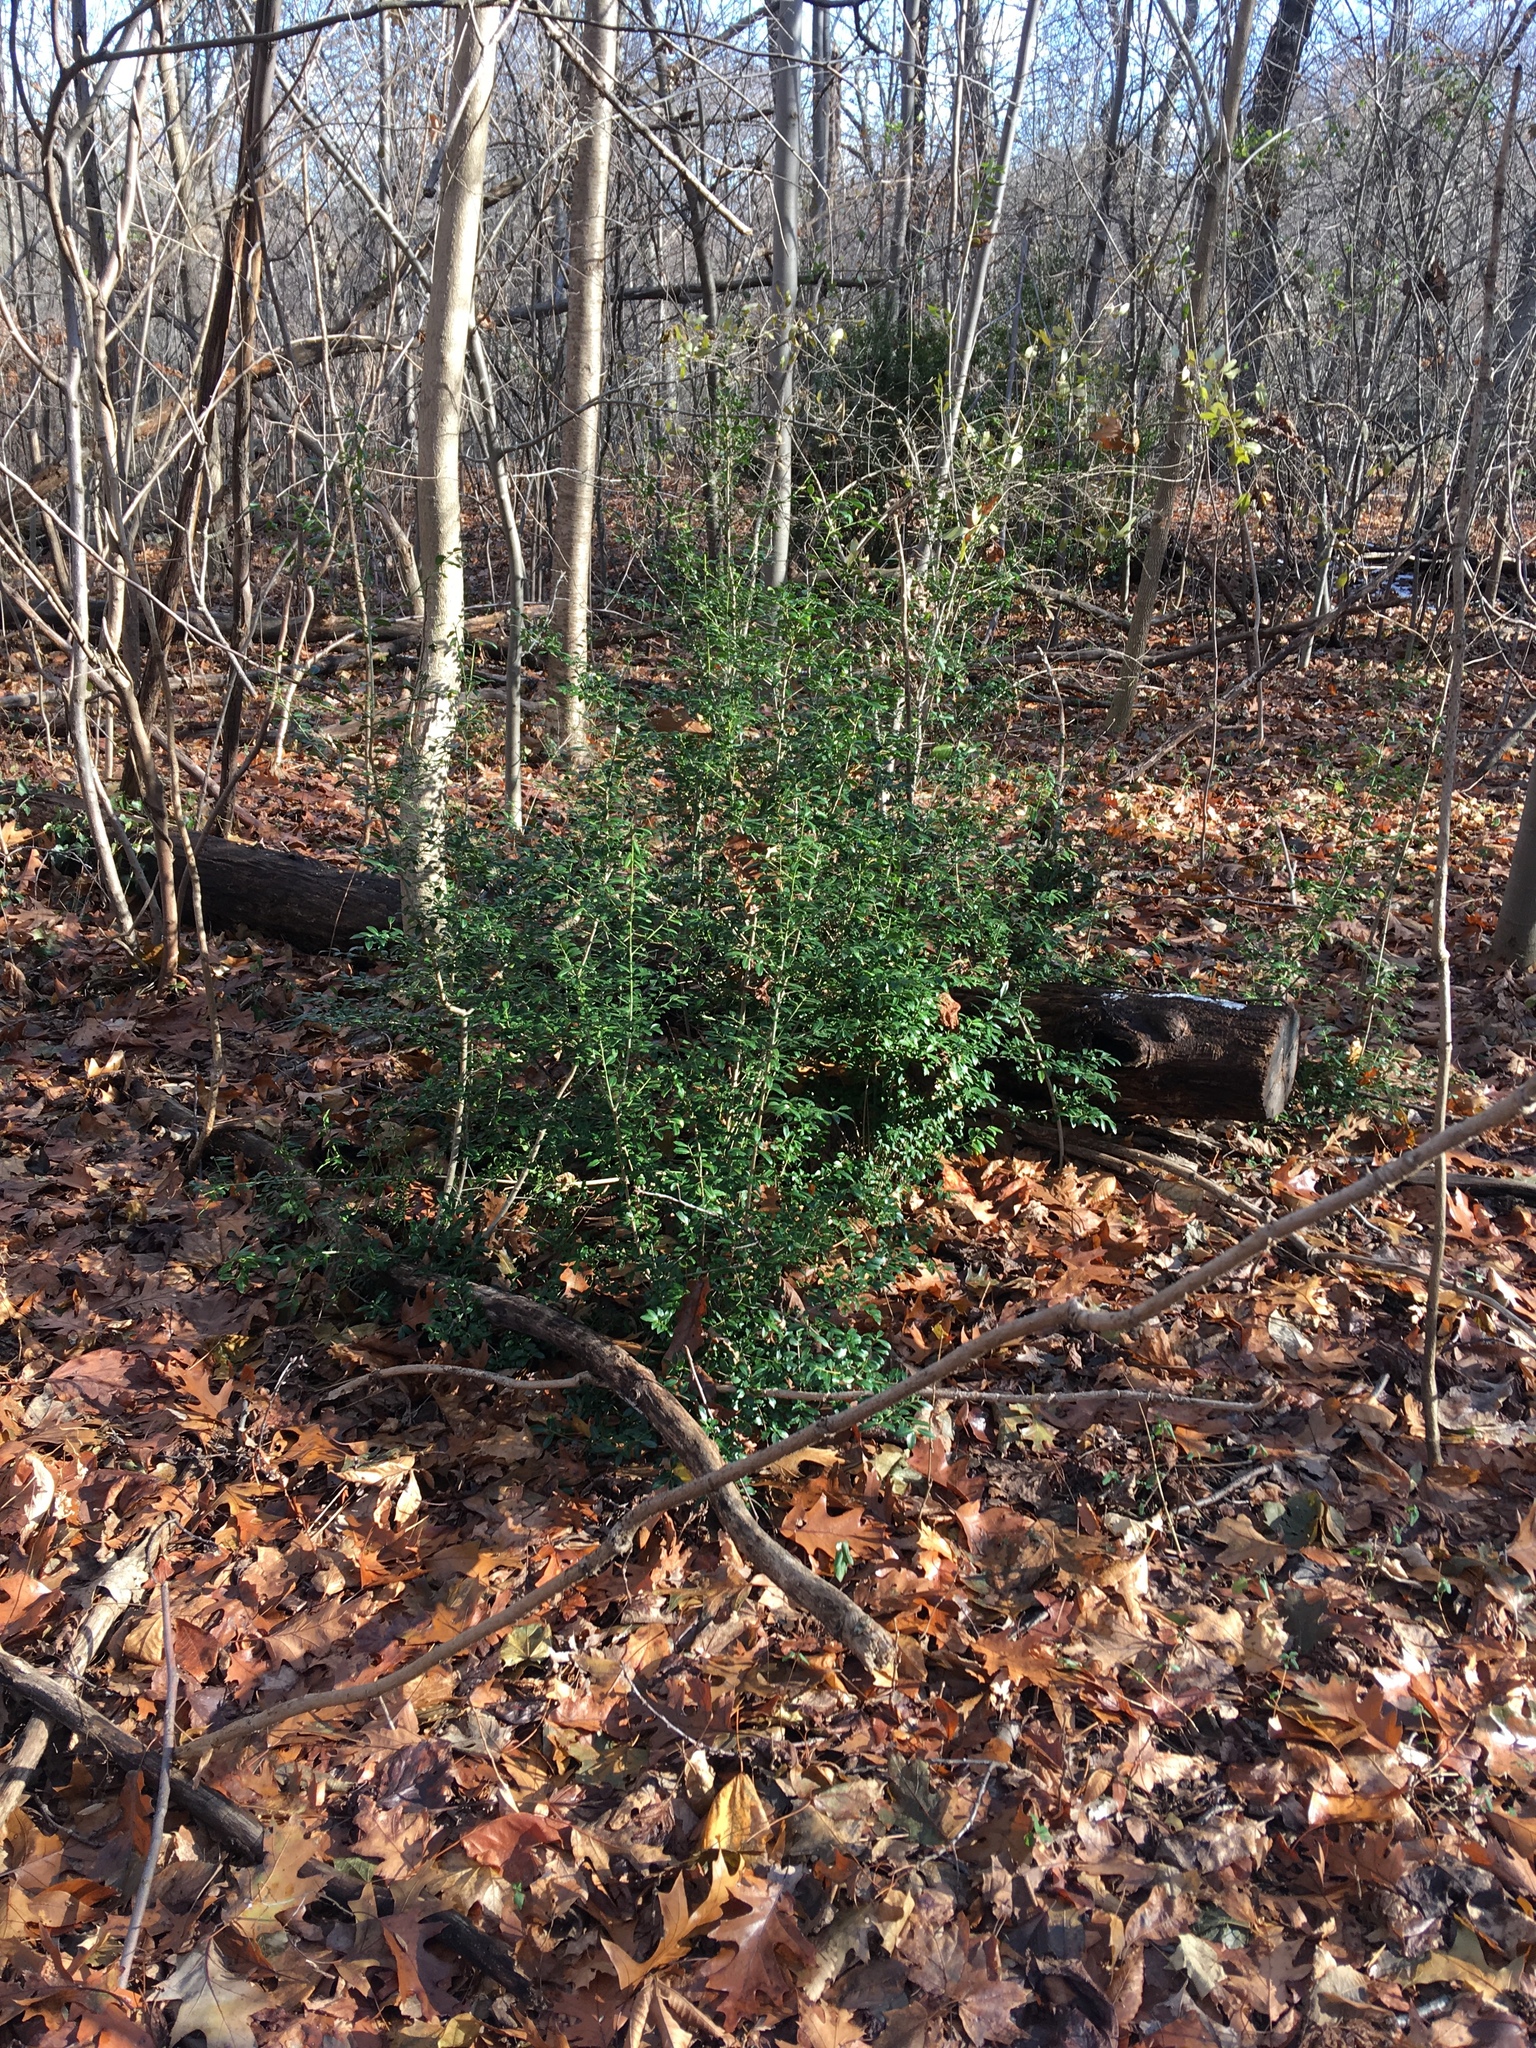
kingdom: Plantae
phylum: Tracheophyta
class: Magnoliopsida
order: Aquifoliales
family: Aquifoliaceae
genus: Ilex
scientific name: Ilex crenata
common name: Japanese holly
